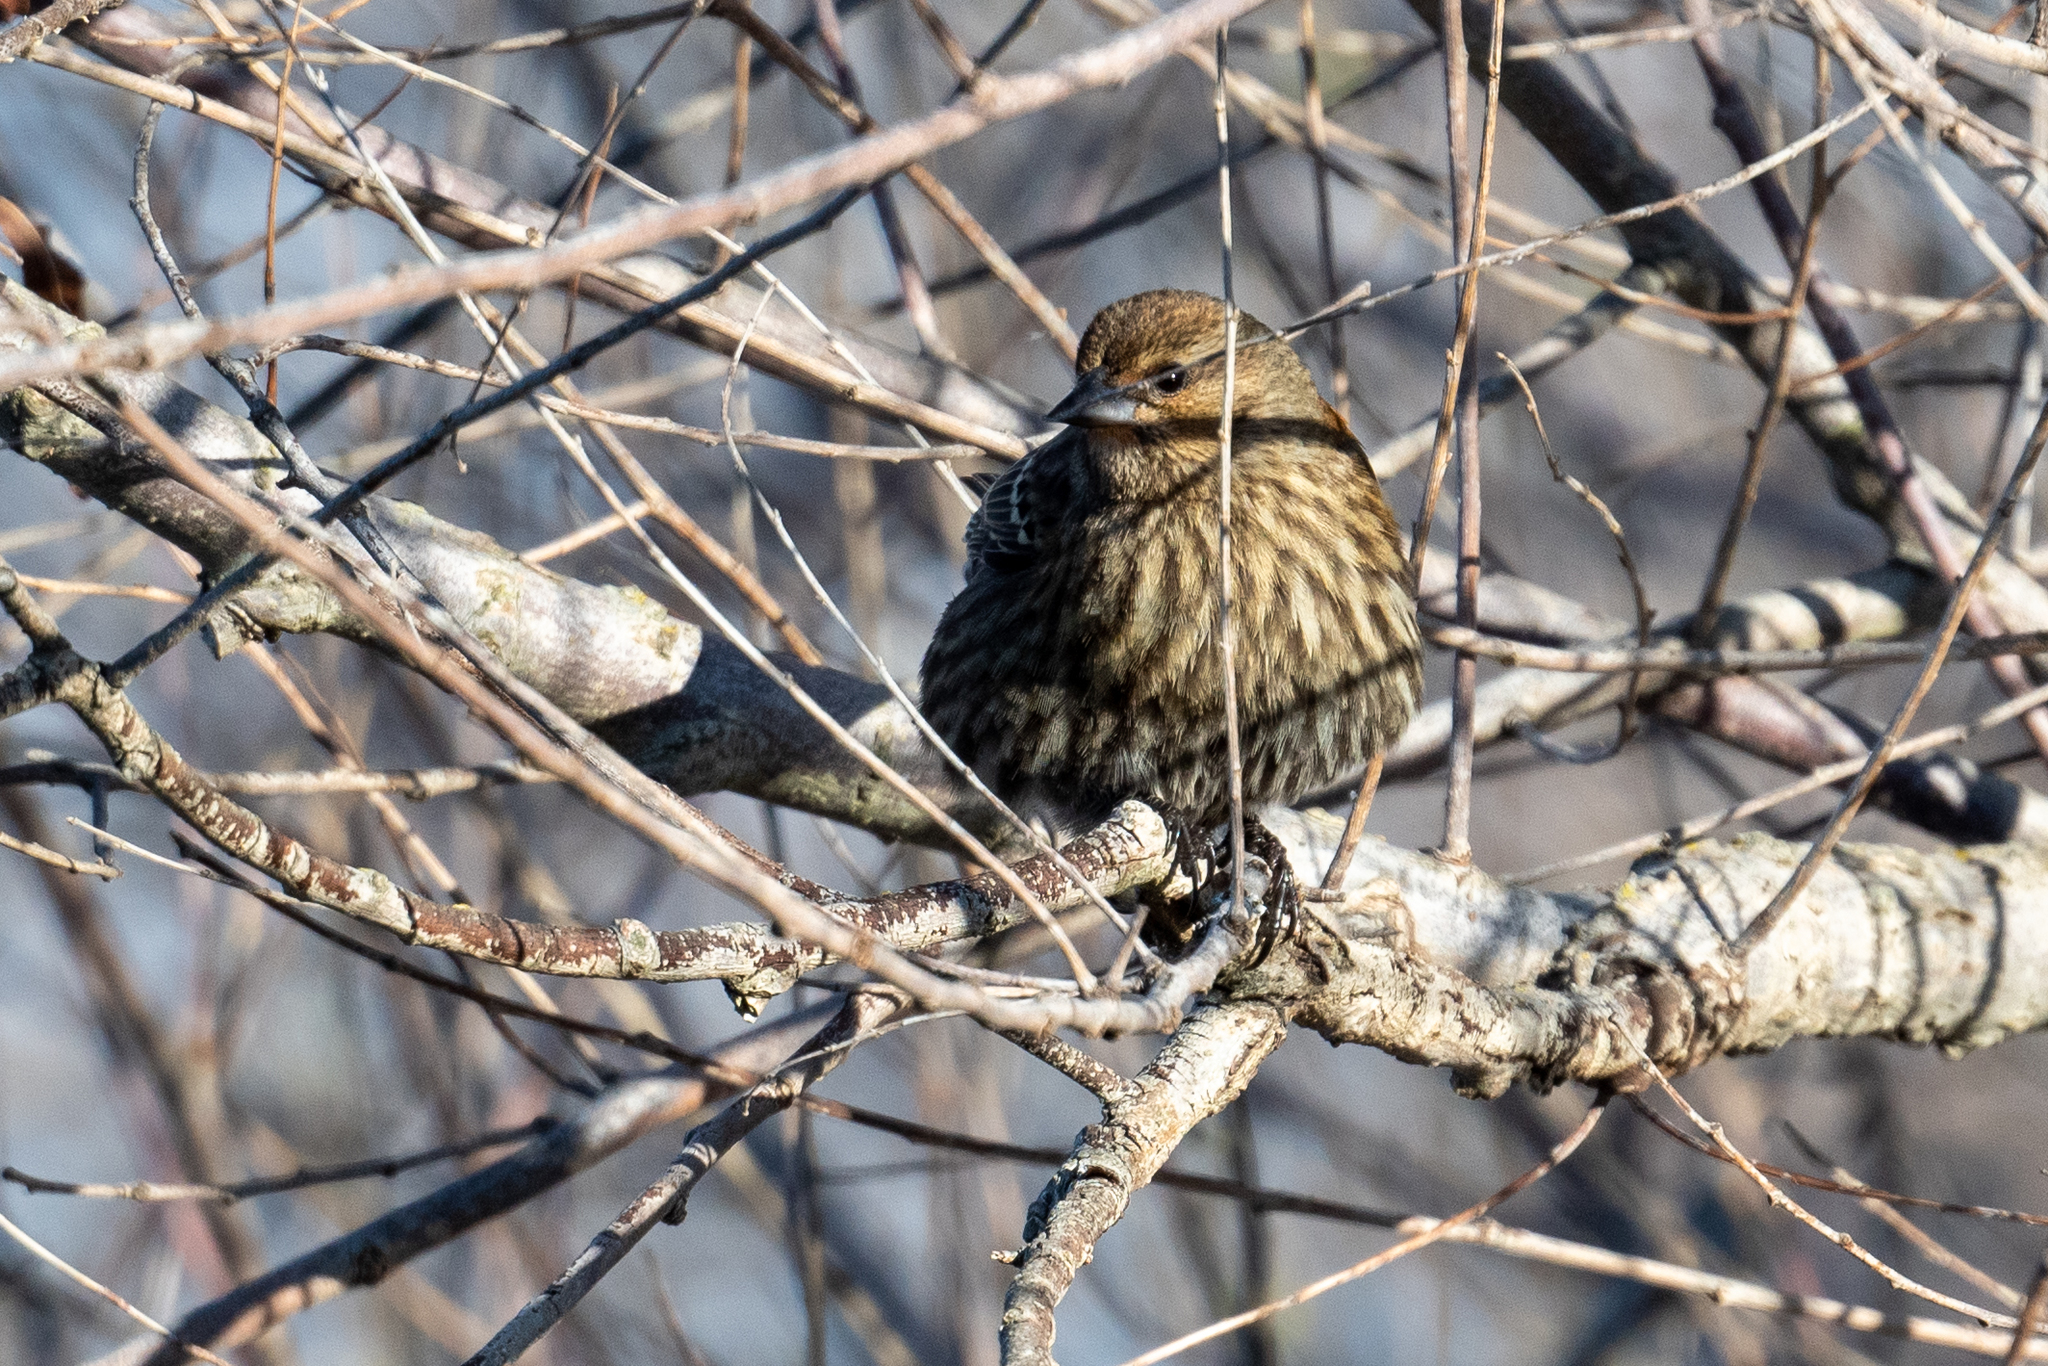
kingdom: Animalia
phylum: Chordata
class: Aves
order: Passeriformes
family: Icteridae
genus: Agelaius
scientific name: Agelaius phoeniceus
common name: Red-winged blackbird
